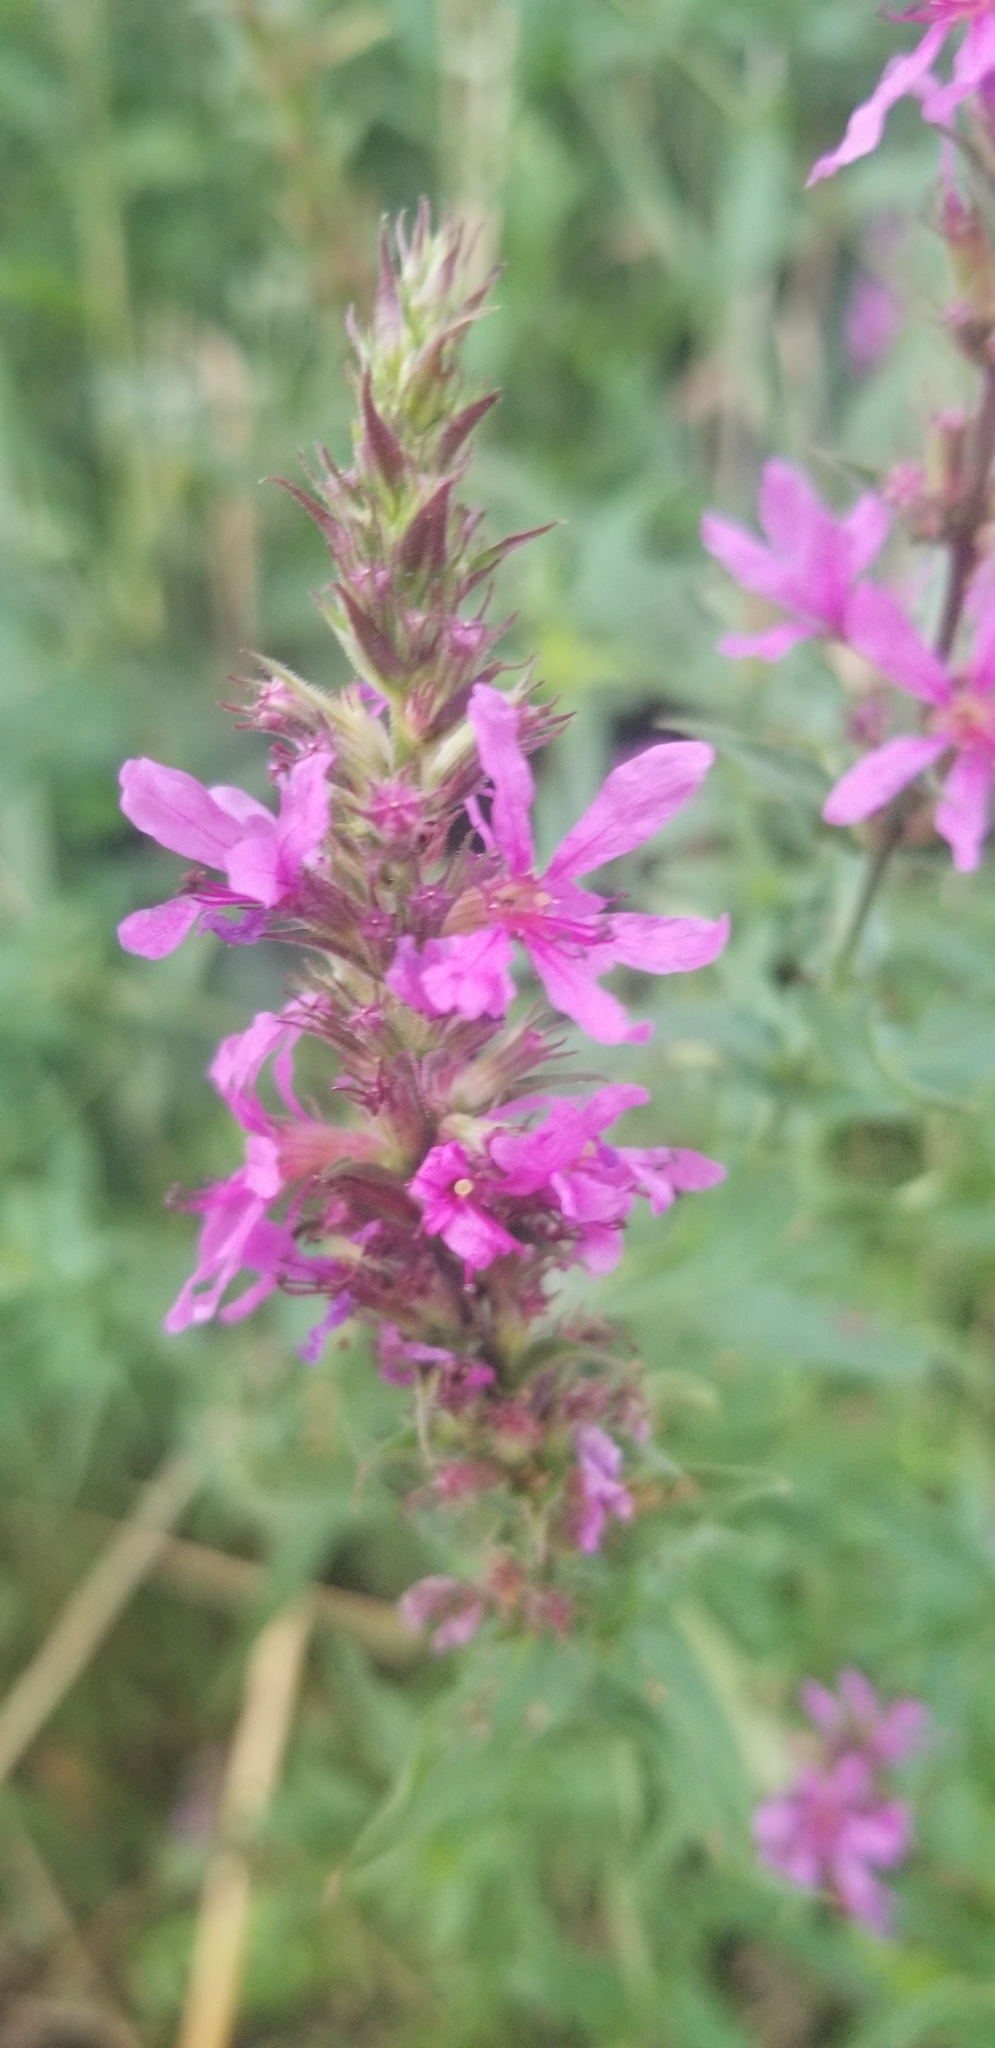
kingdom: Plantae
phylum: Tracheophyta
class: Magnoliopsida
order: Myrtales
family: Lythraceae
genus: Lythrum
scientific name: Lythrum salicaria
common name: Purple loosestrife
